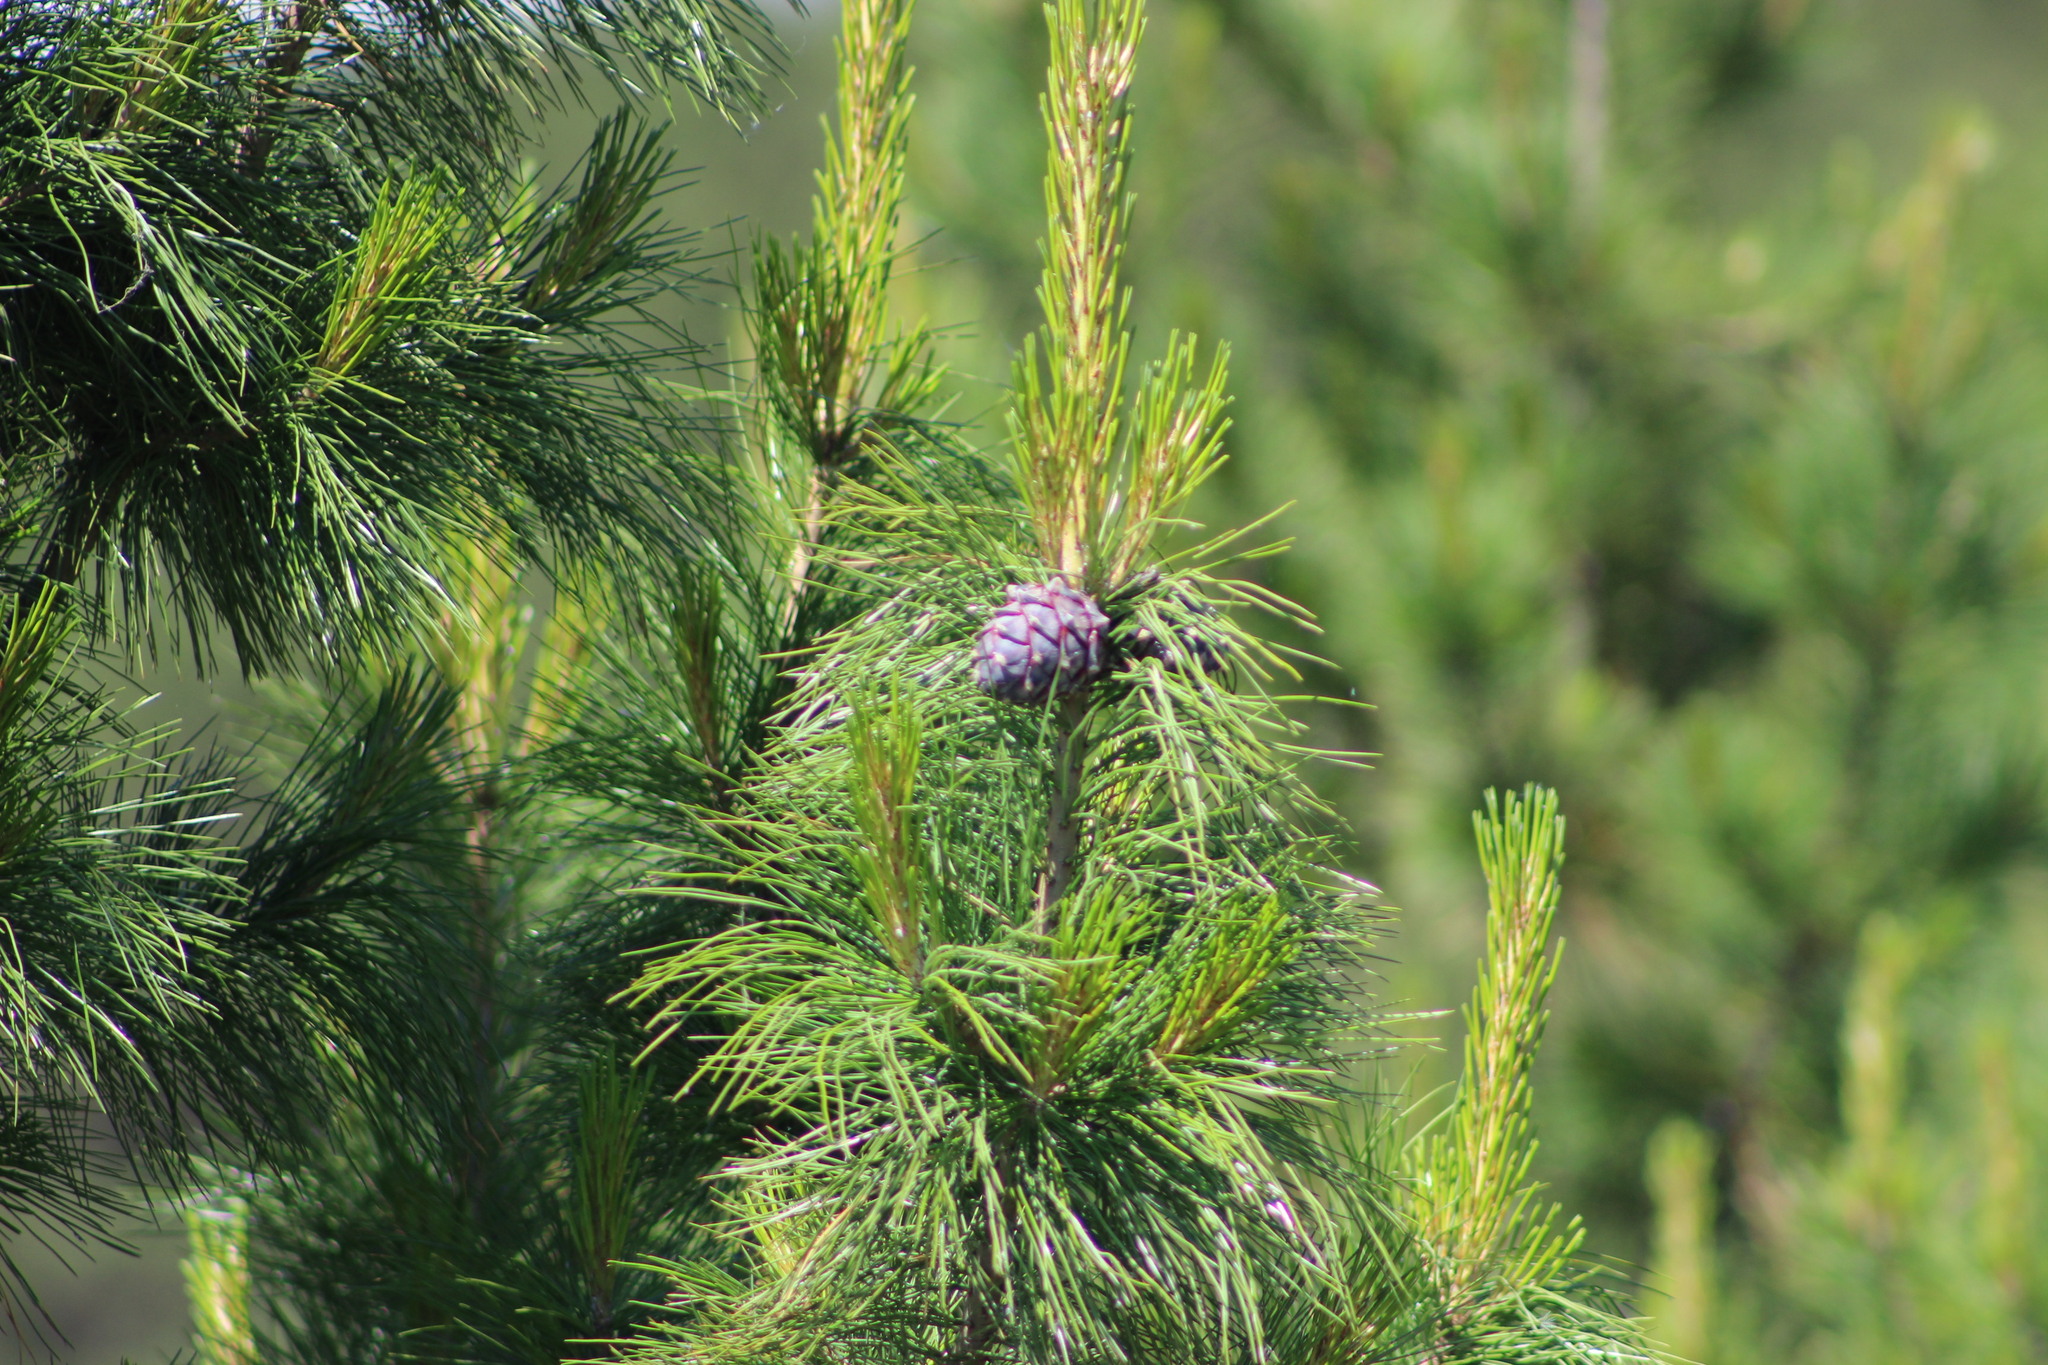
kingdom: Plantae
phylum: Tracheophyta
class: Pinopsida
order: Pinales
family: Pinaceae
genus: Pinus
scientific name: Pinus sibirica
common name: Siberian pine
